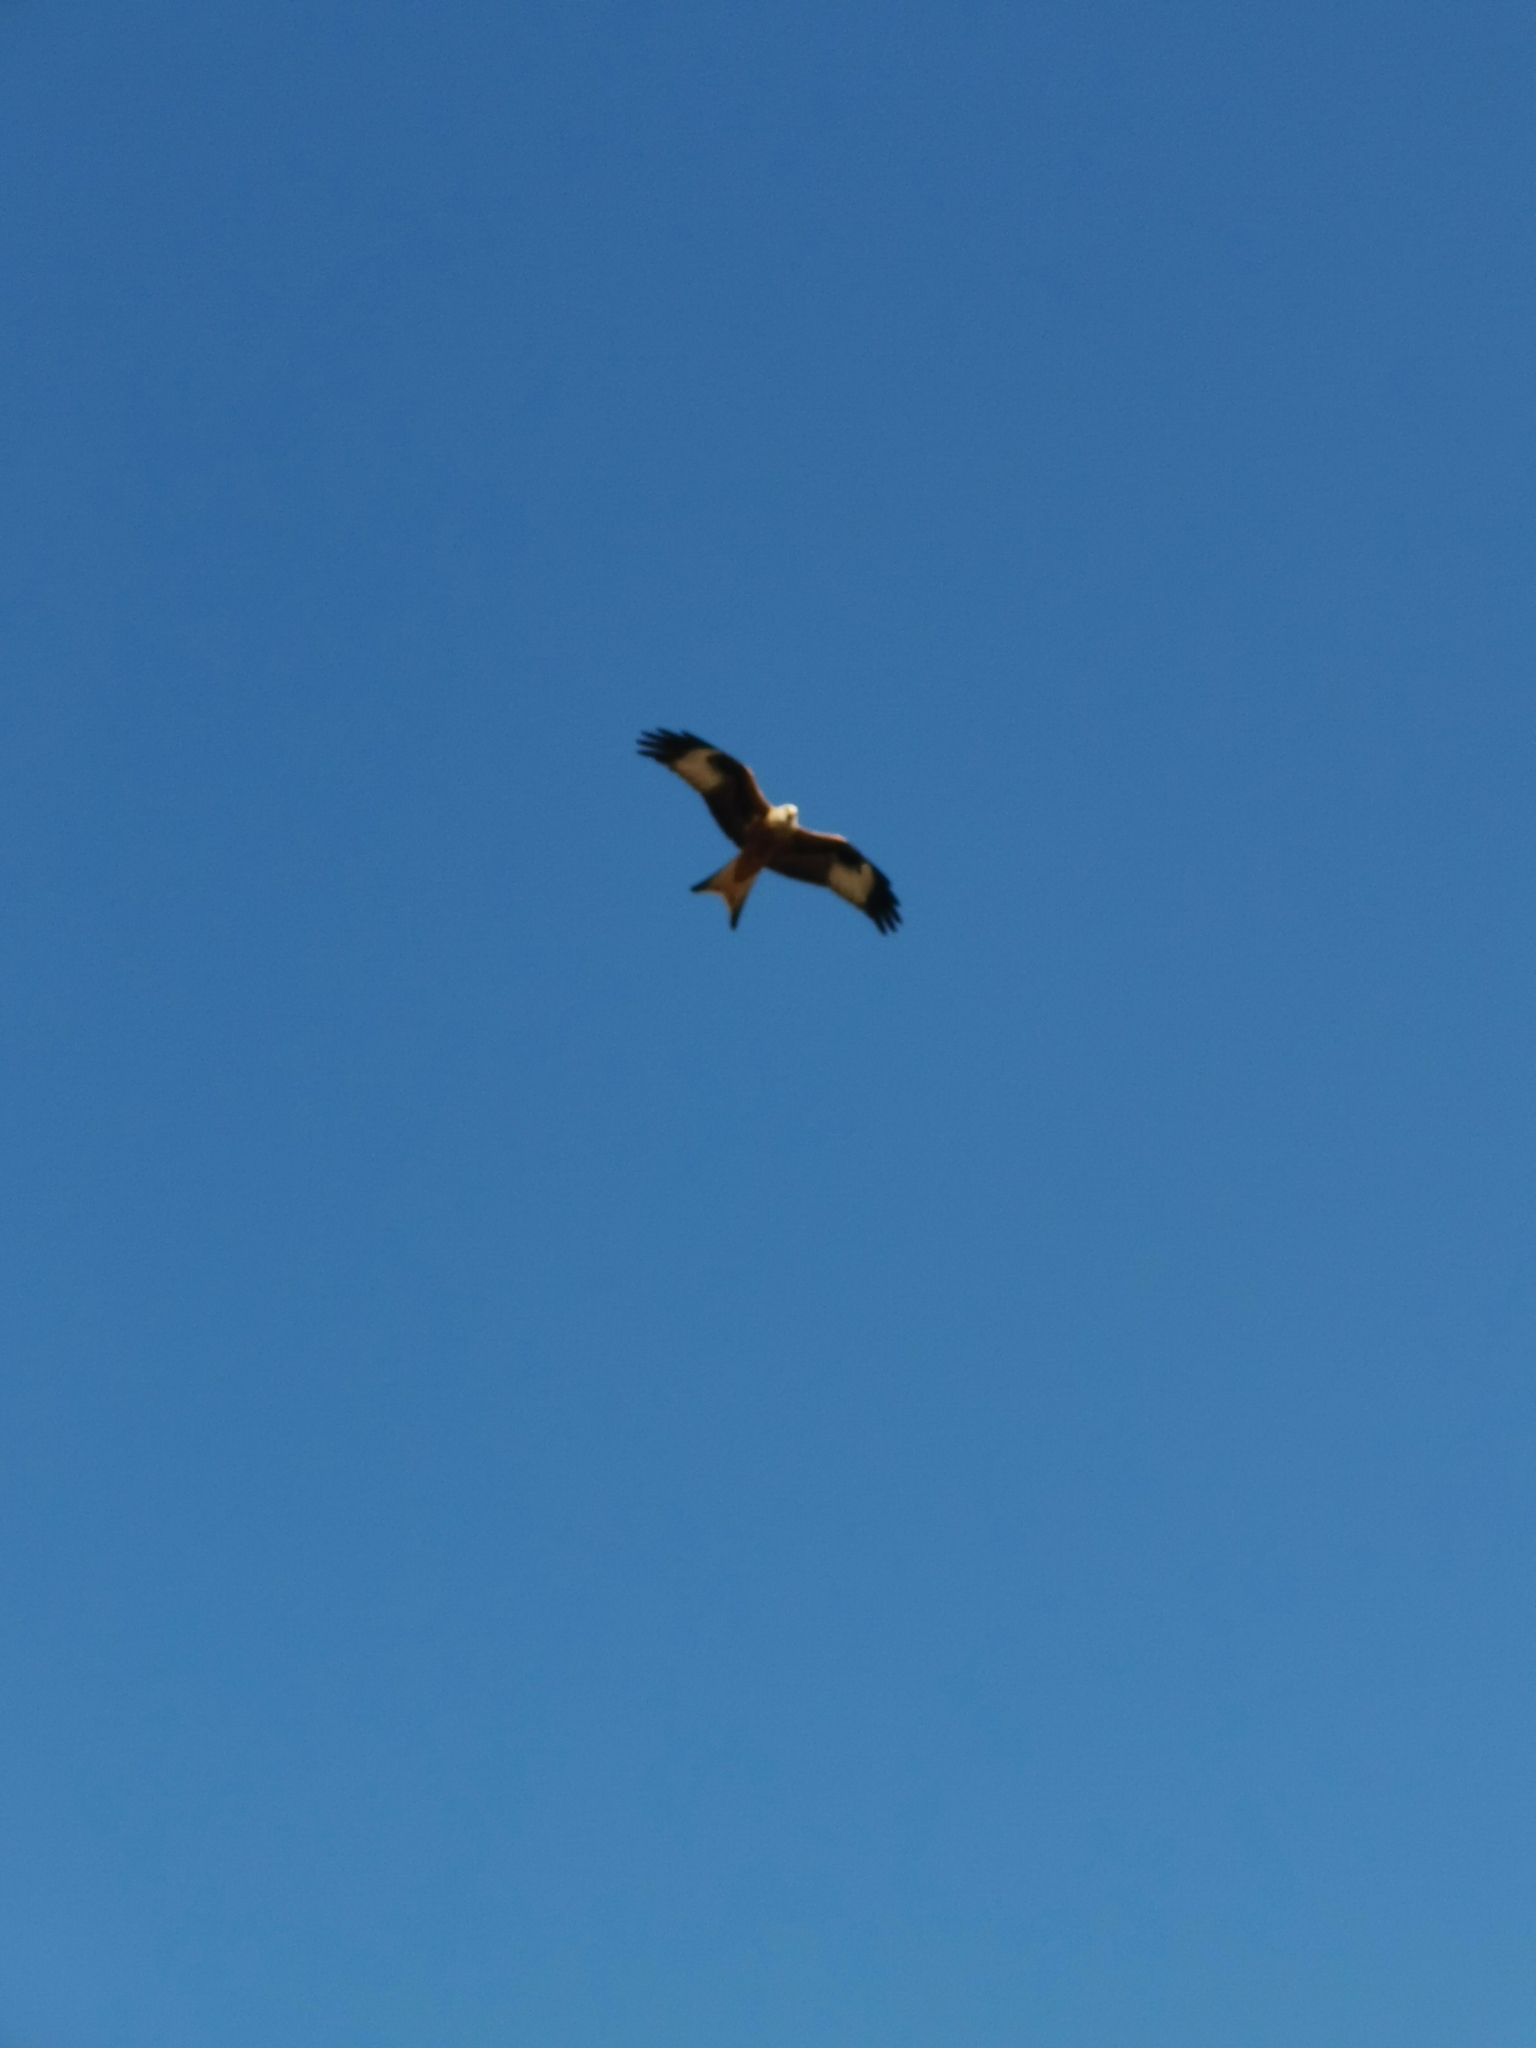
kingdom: Animalia
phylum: Chordata
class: Aves
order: Accipitriformes
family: Accipitridae
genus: Milvus
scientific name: Milvus milvus
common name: Red kite
